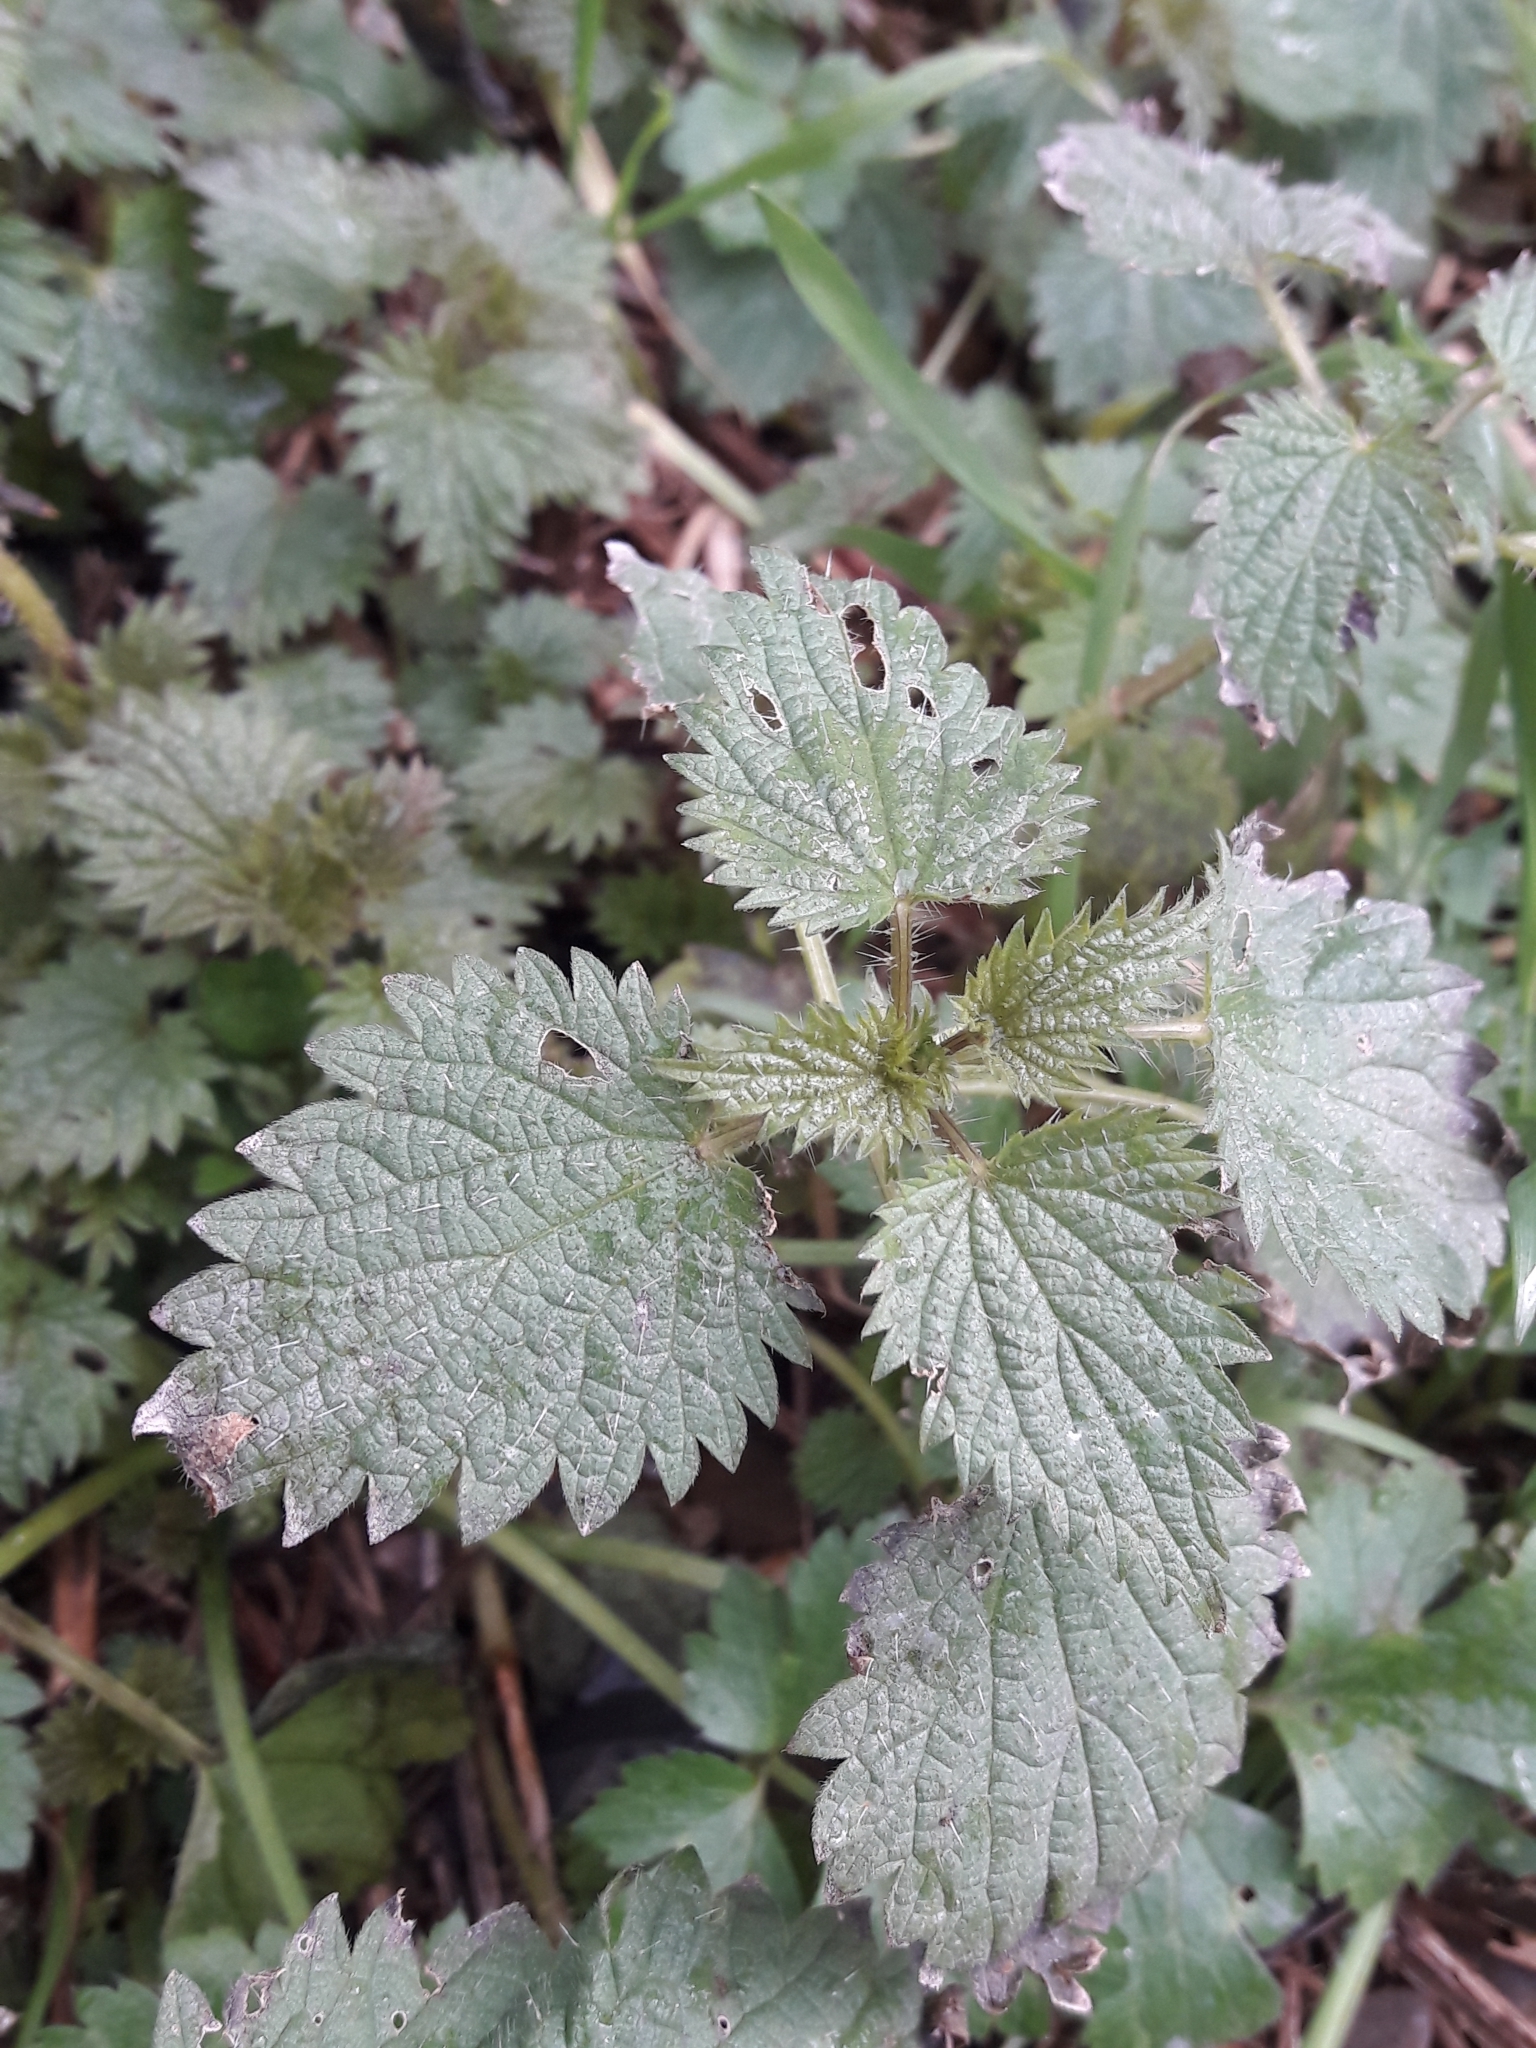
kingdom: Plantae
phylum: Tracheophyta
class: Magnoliopsida
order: Rosales
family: Urticaceae
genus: Urtica
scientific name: Urtica dioica
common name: Common nettle
